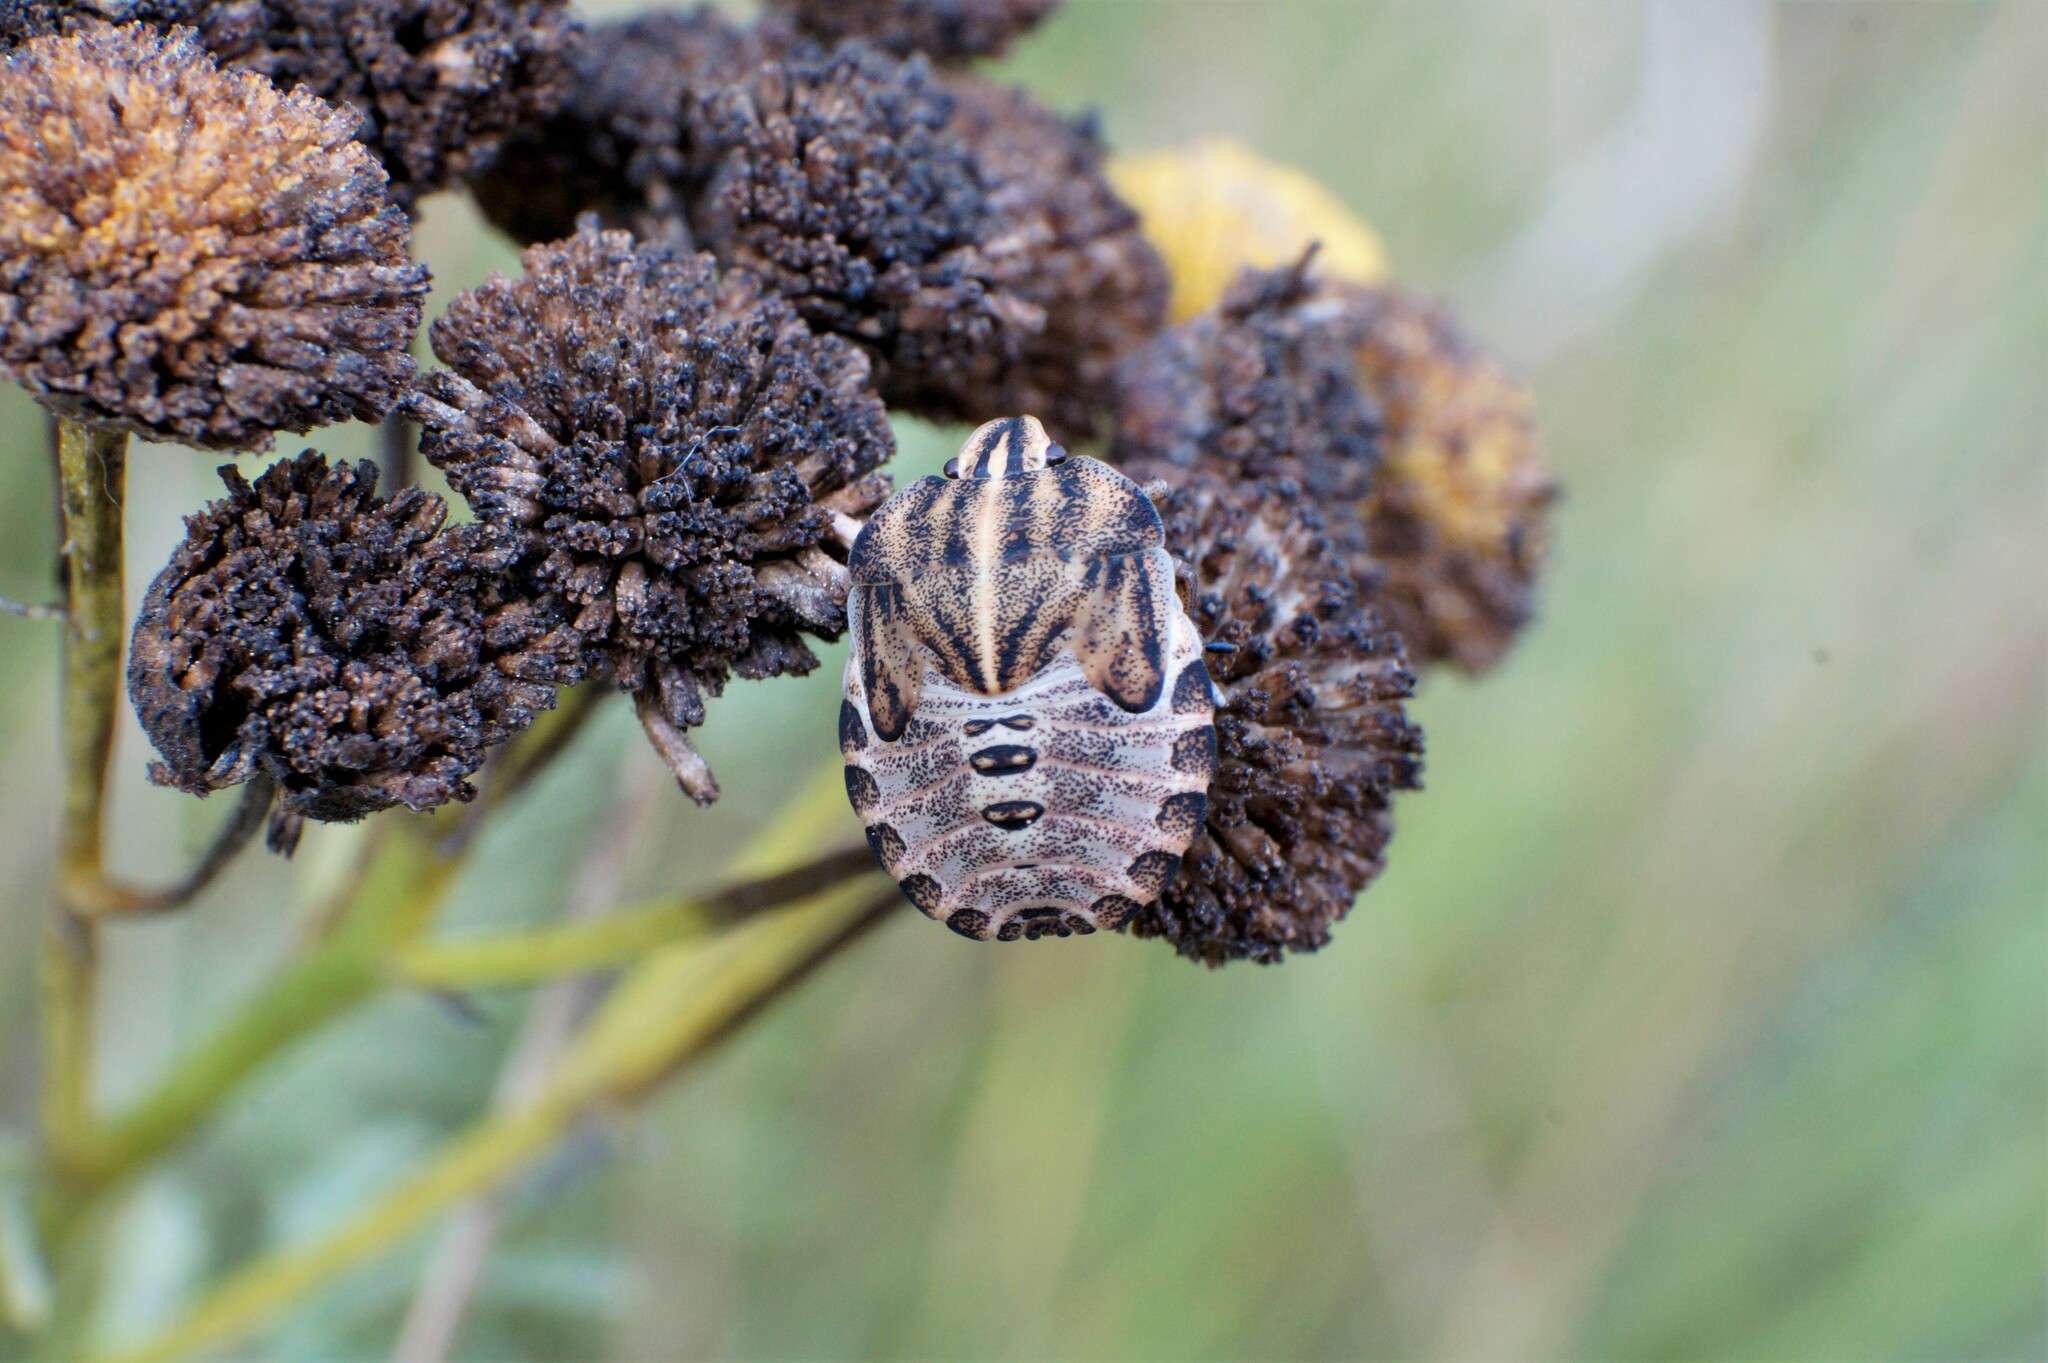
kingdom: Animalia
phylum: Arthropoda
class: Insecta
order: Hemiptera
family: Pentatomidae
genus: Graphosoma
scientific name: Graphosoma italicum
